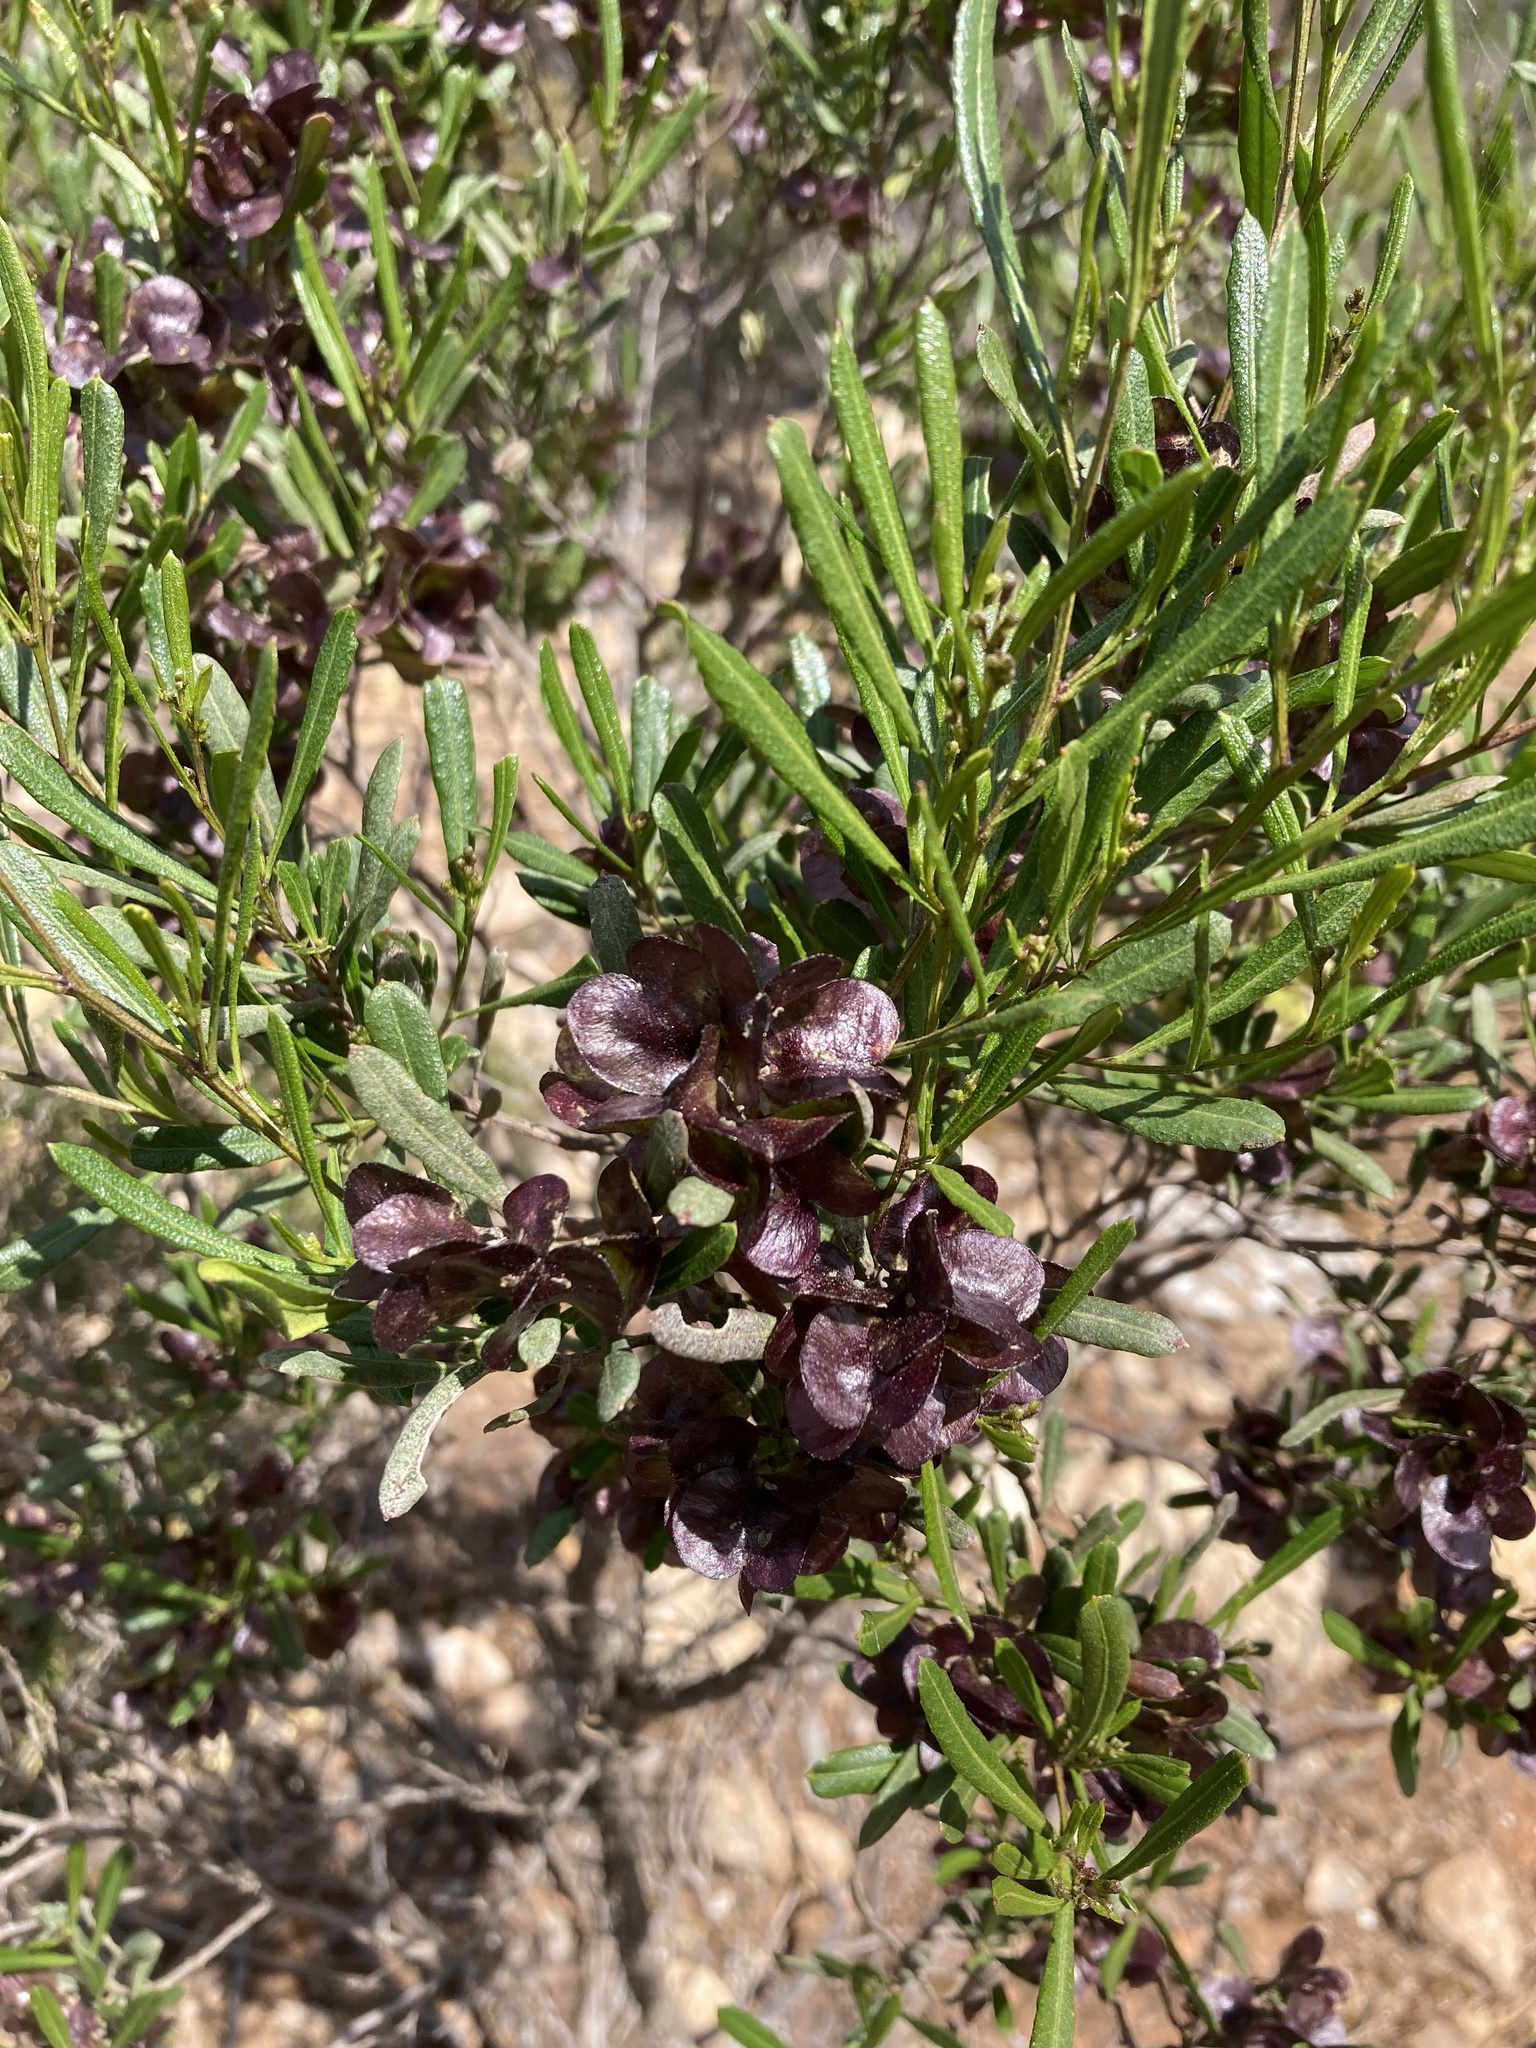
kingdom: Plantae
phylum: Tracheophyta
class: Magnoliopsida
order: Sapindales
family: Sapindaceae
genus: Dodonaea
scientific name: Dodonaea viscosa
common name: Hopbush
